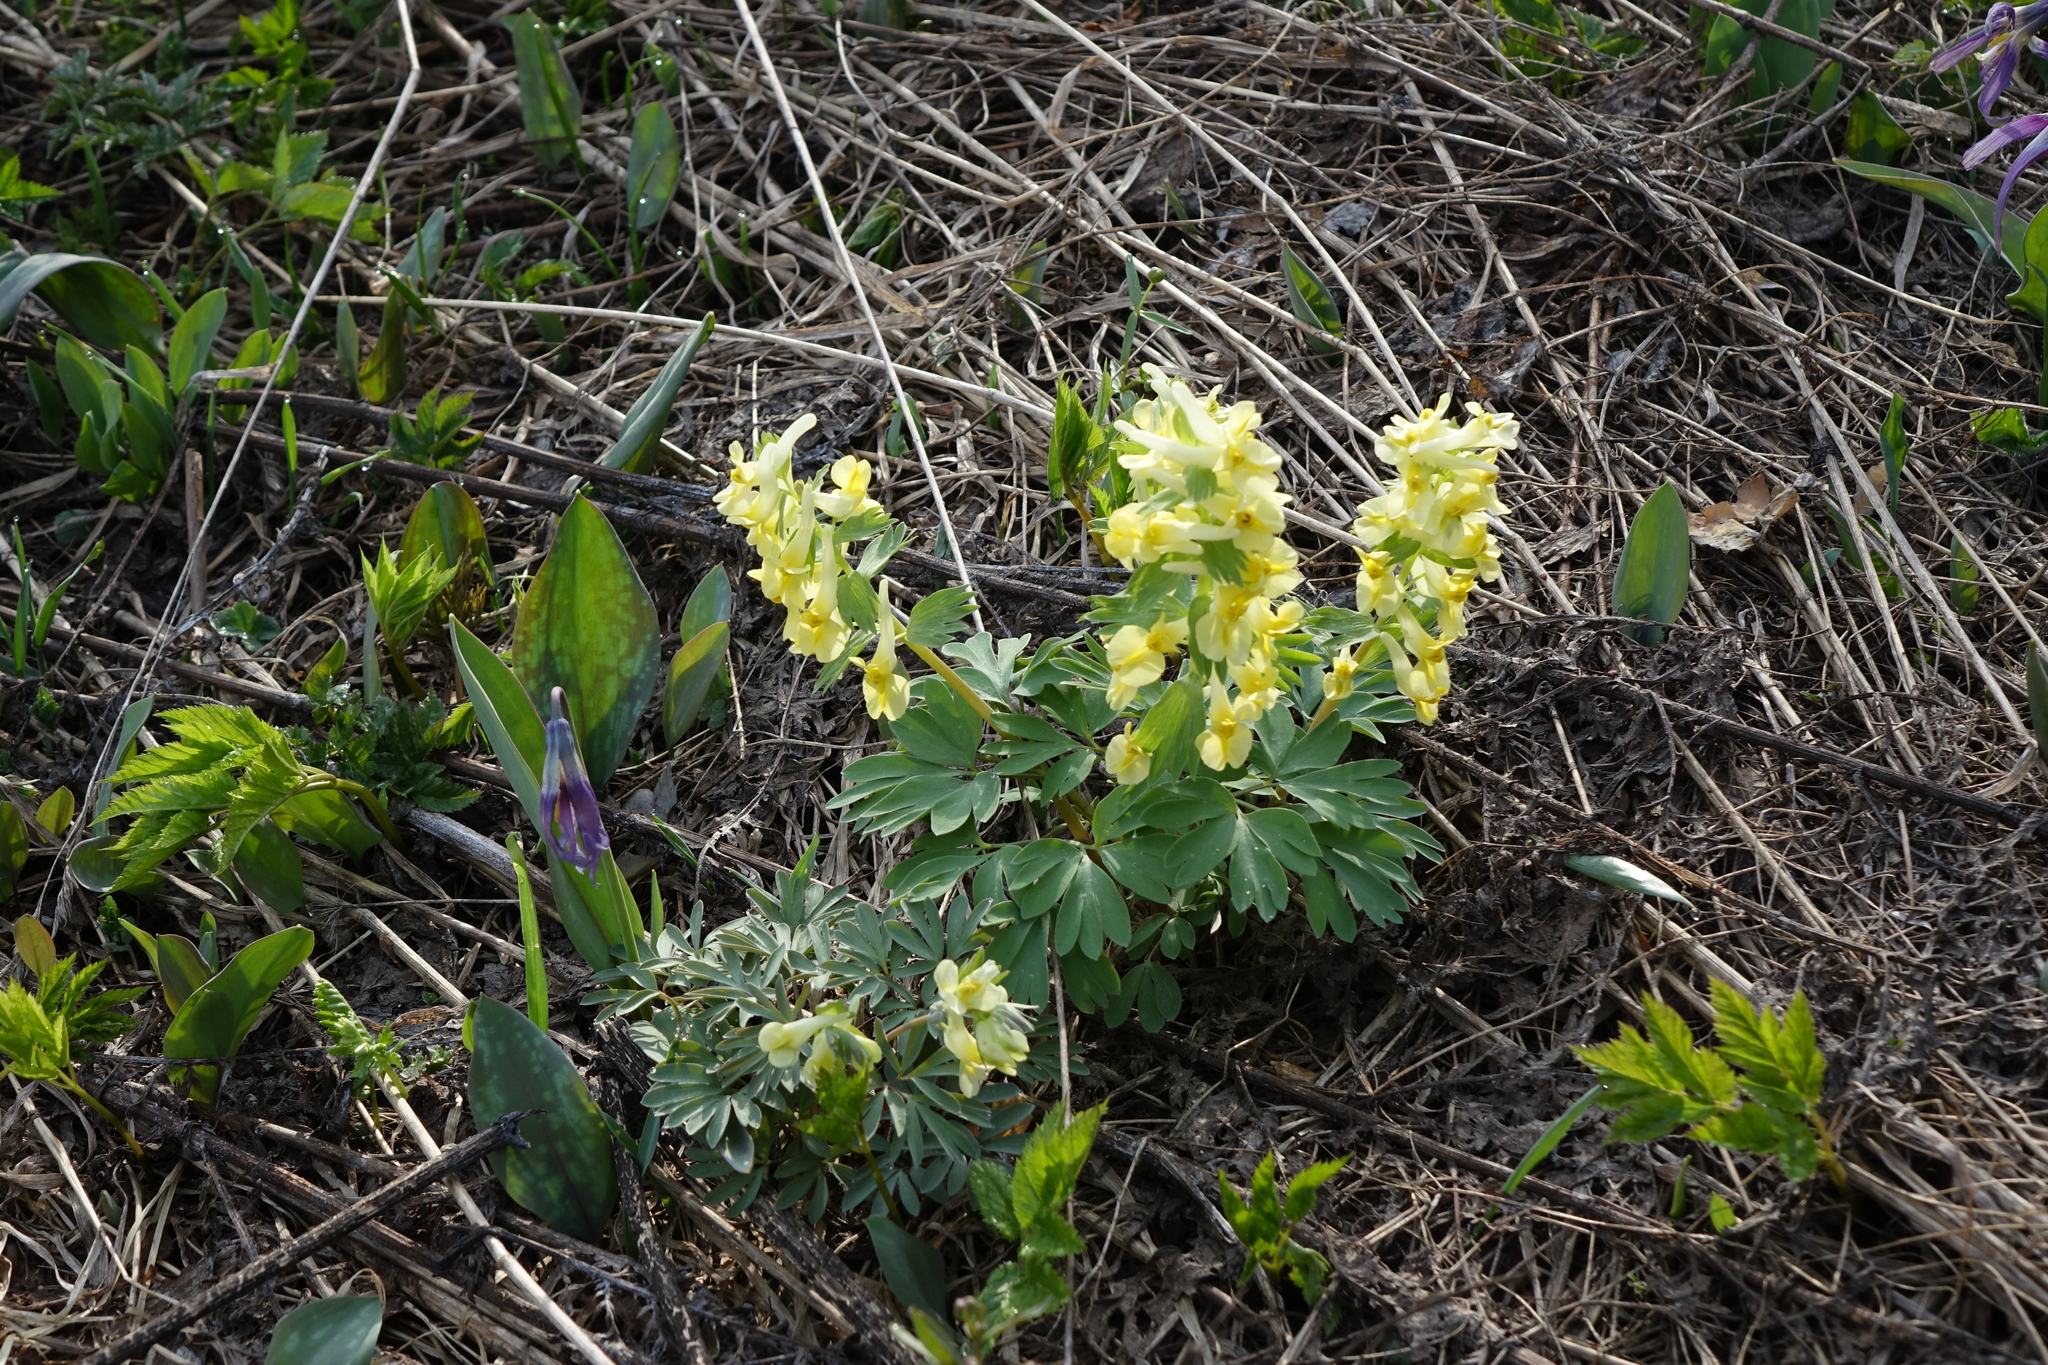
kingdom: Plantae
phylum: Tracheophyta
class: Magnoliopsida
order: Ranunculales
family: Papaveraceae
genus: Corydalis
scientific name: Corydalis bracteata
